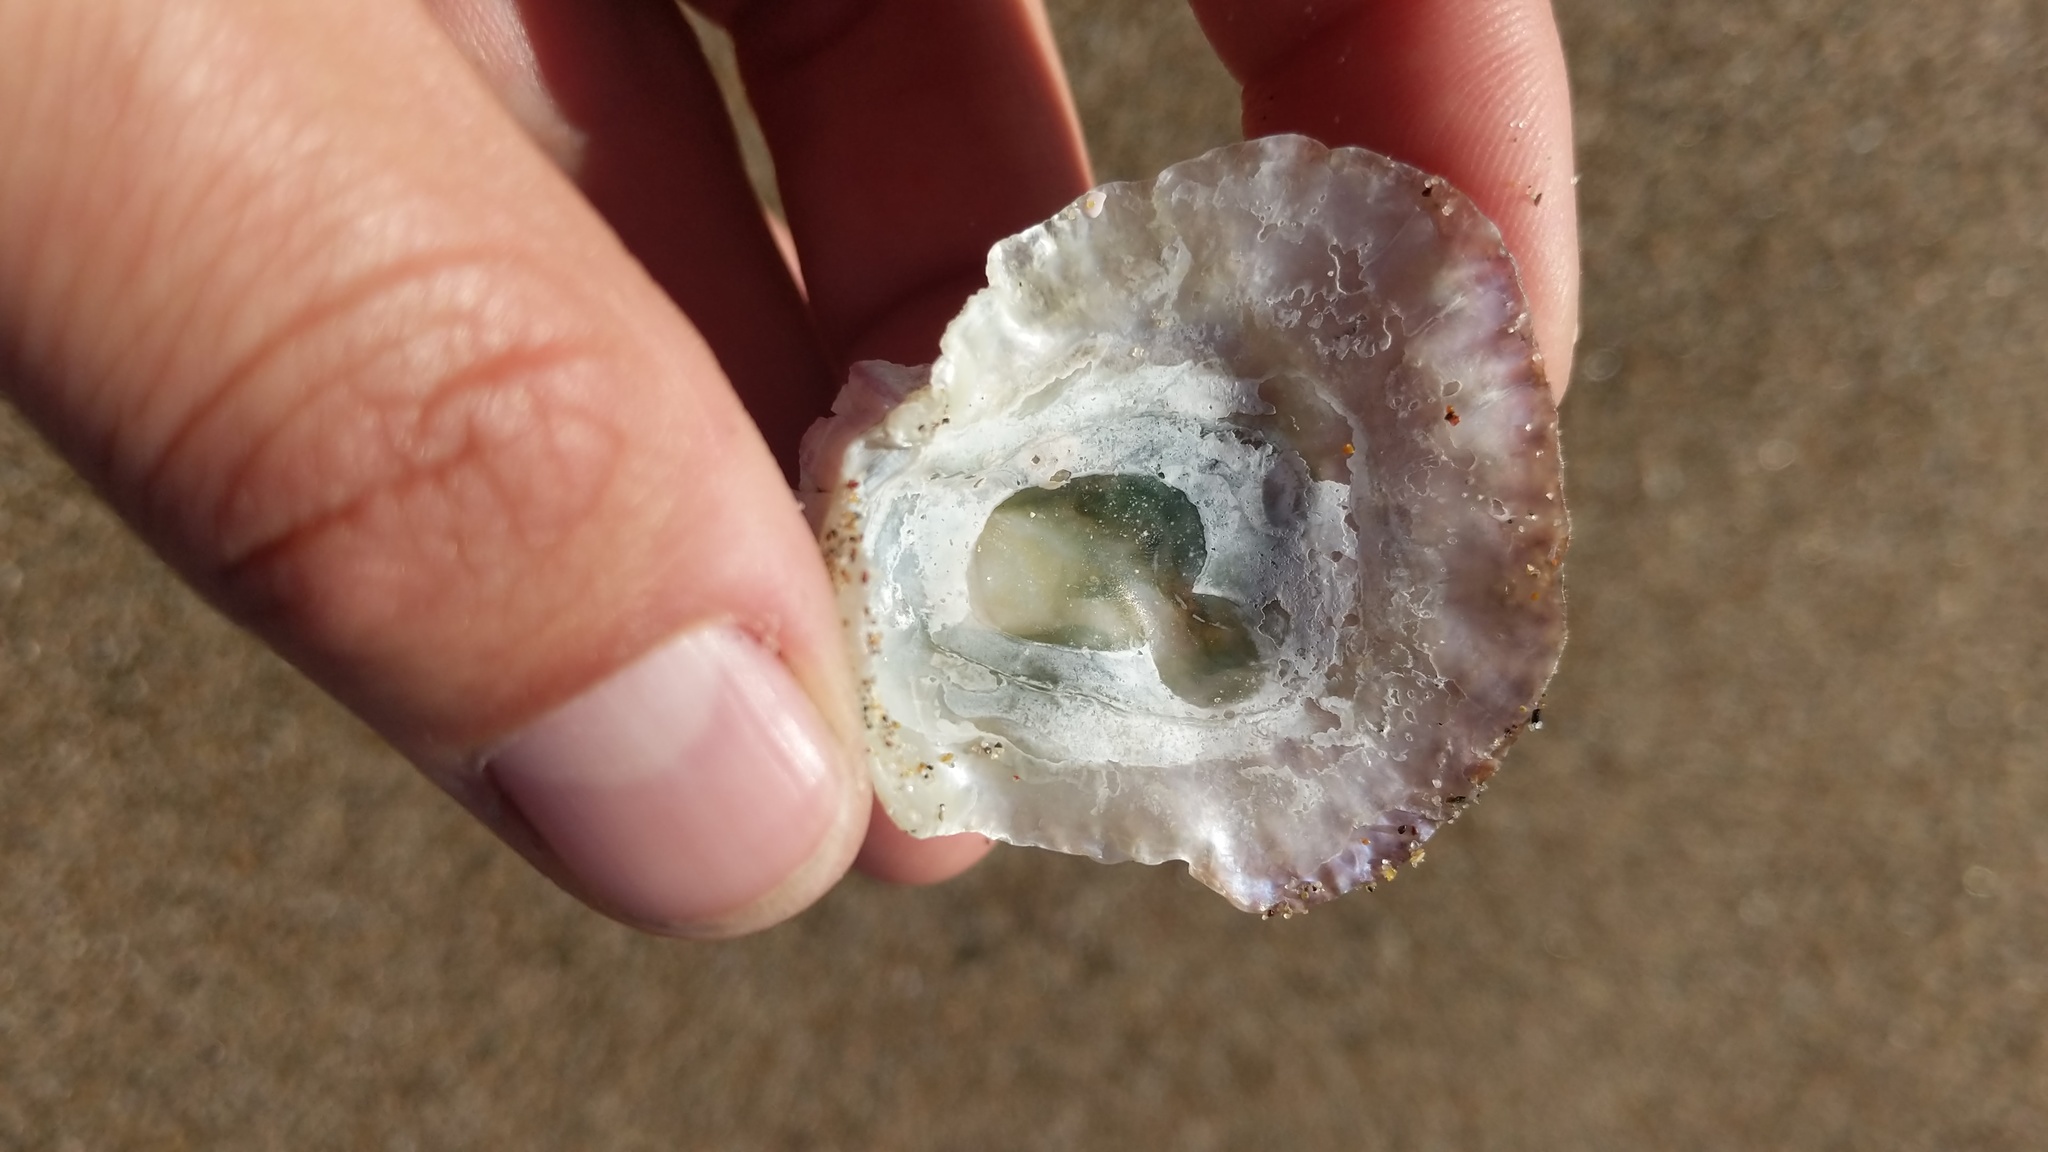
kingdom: Animalia
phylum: Mollusca
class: Bivalvia
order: Pectinida
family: Anomiidae
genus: Pododesmus
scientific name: Pododesmus macrochisma
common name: Alaska jingle
